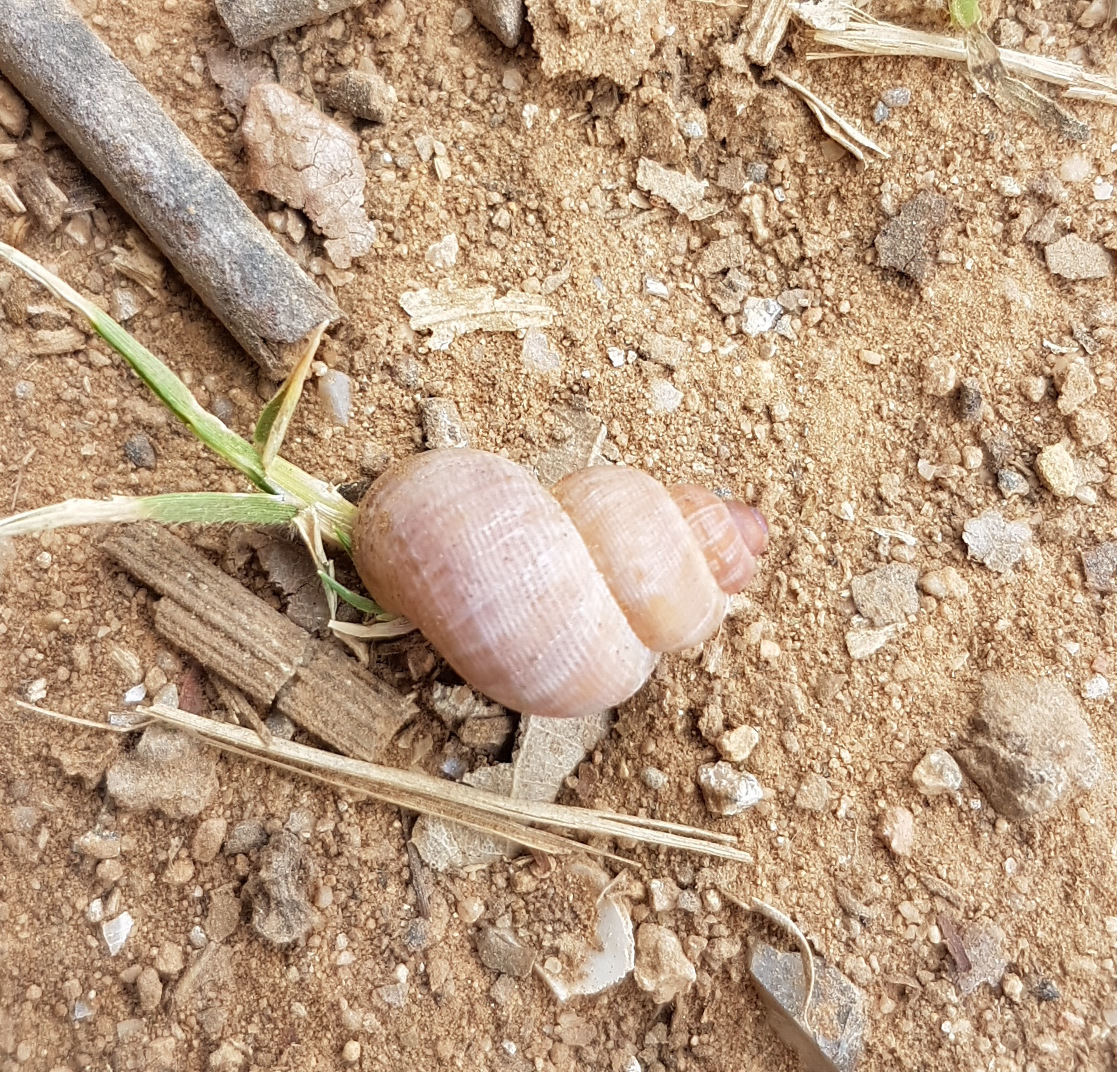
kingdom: Animalia
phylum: Mollusca
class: Gastropoda
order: Littorinimorpha
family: Pomatiidae
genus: Pomatias
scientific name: Pomatias elegans
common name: Red-mouthed snail
